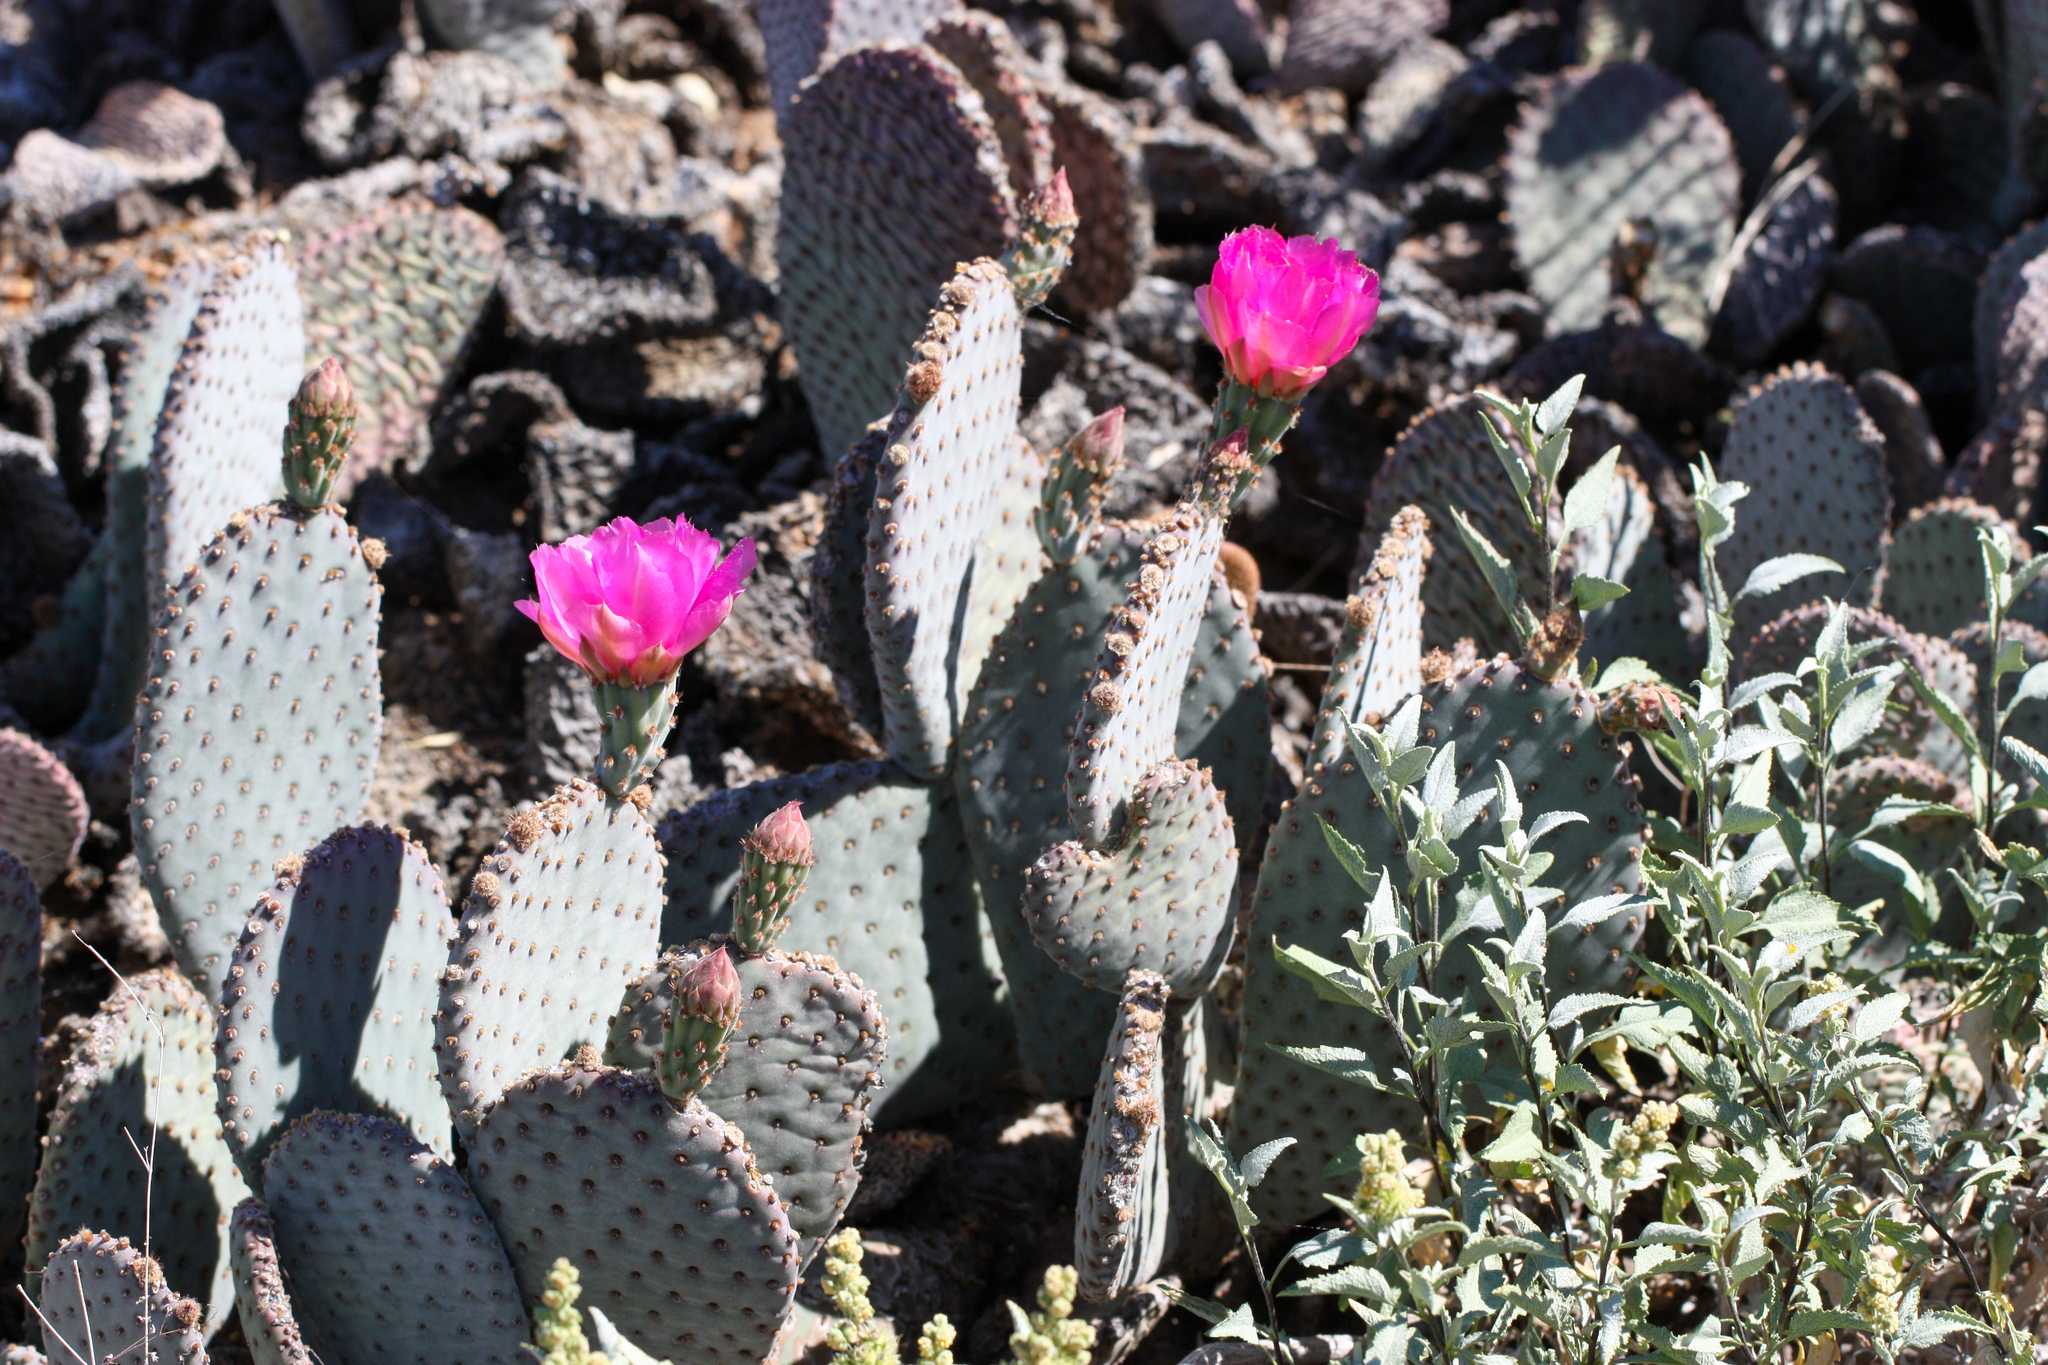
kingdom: Plantae
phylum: Tracheophyta
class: Magnoliopsida
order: Caryophyllales
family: Cactaceae
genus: Opuntia
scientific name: Opuntia basilaris
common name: Beavertail prickly-pear
